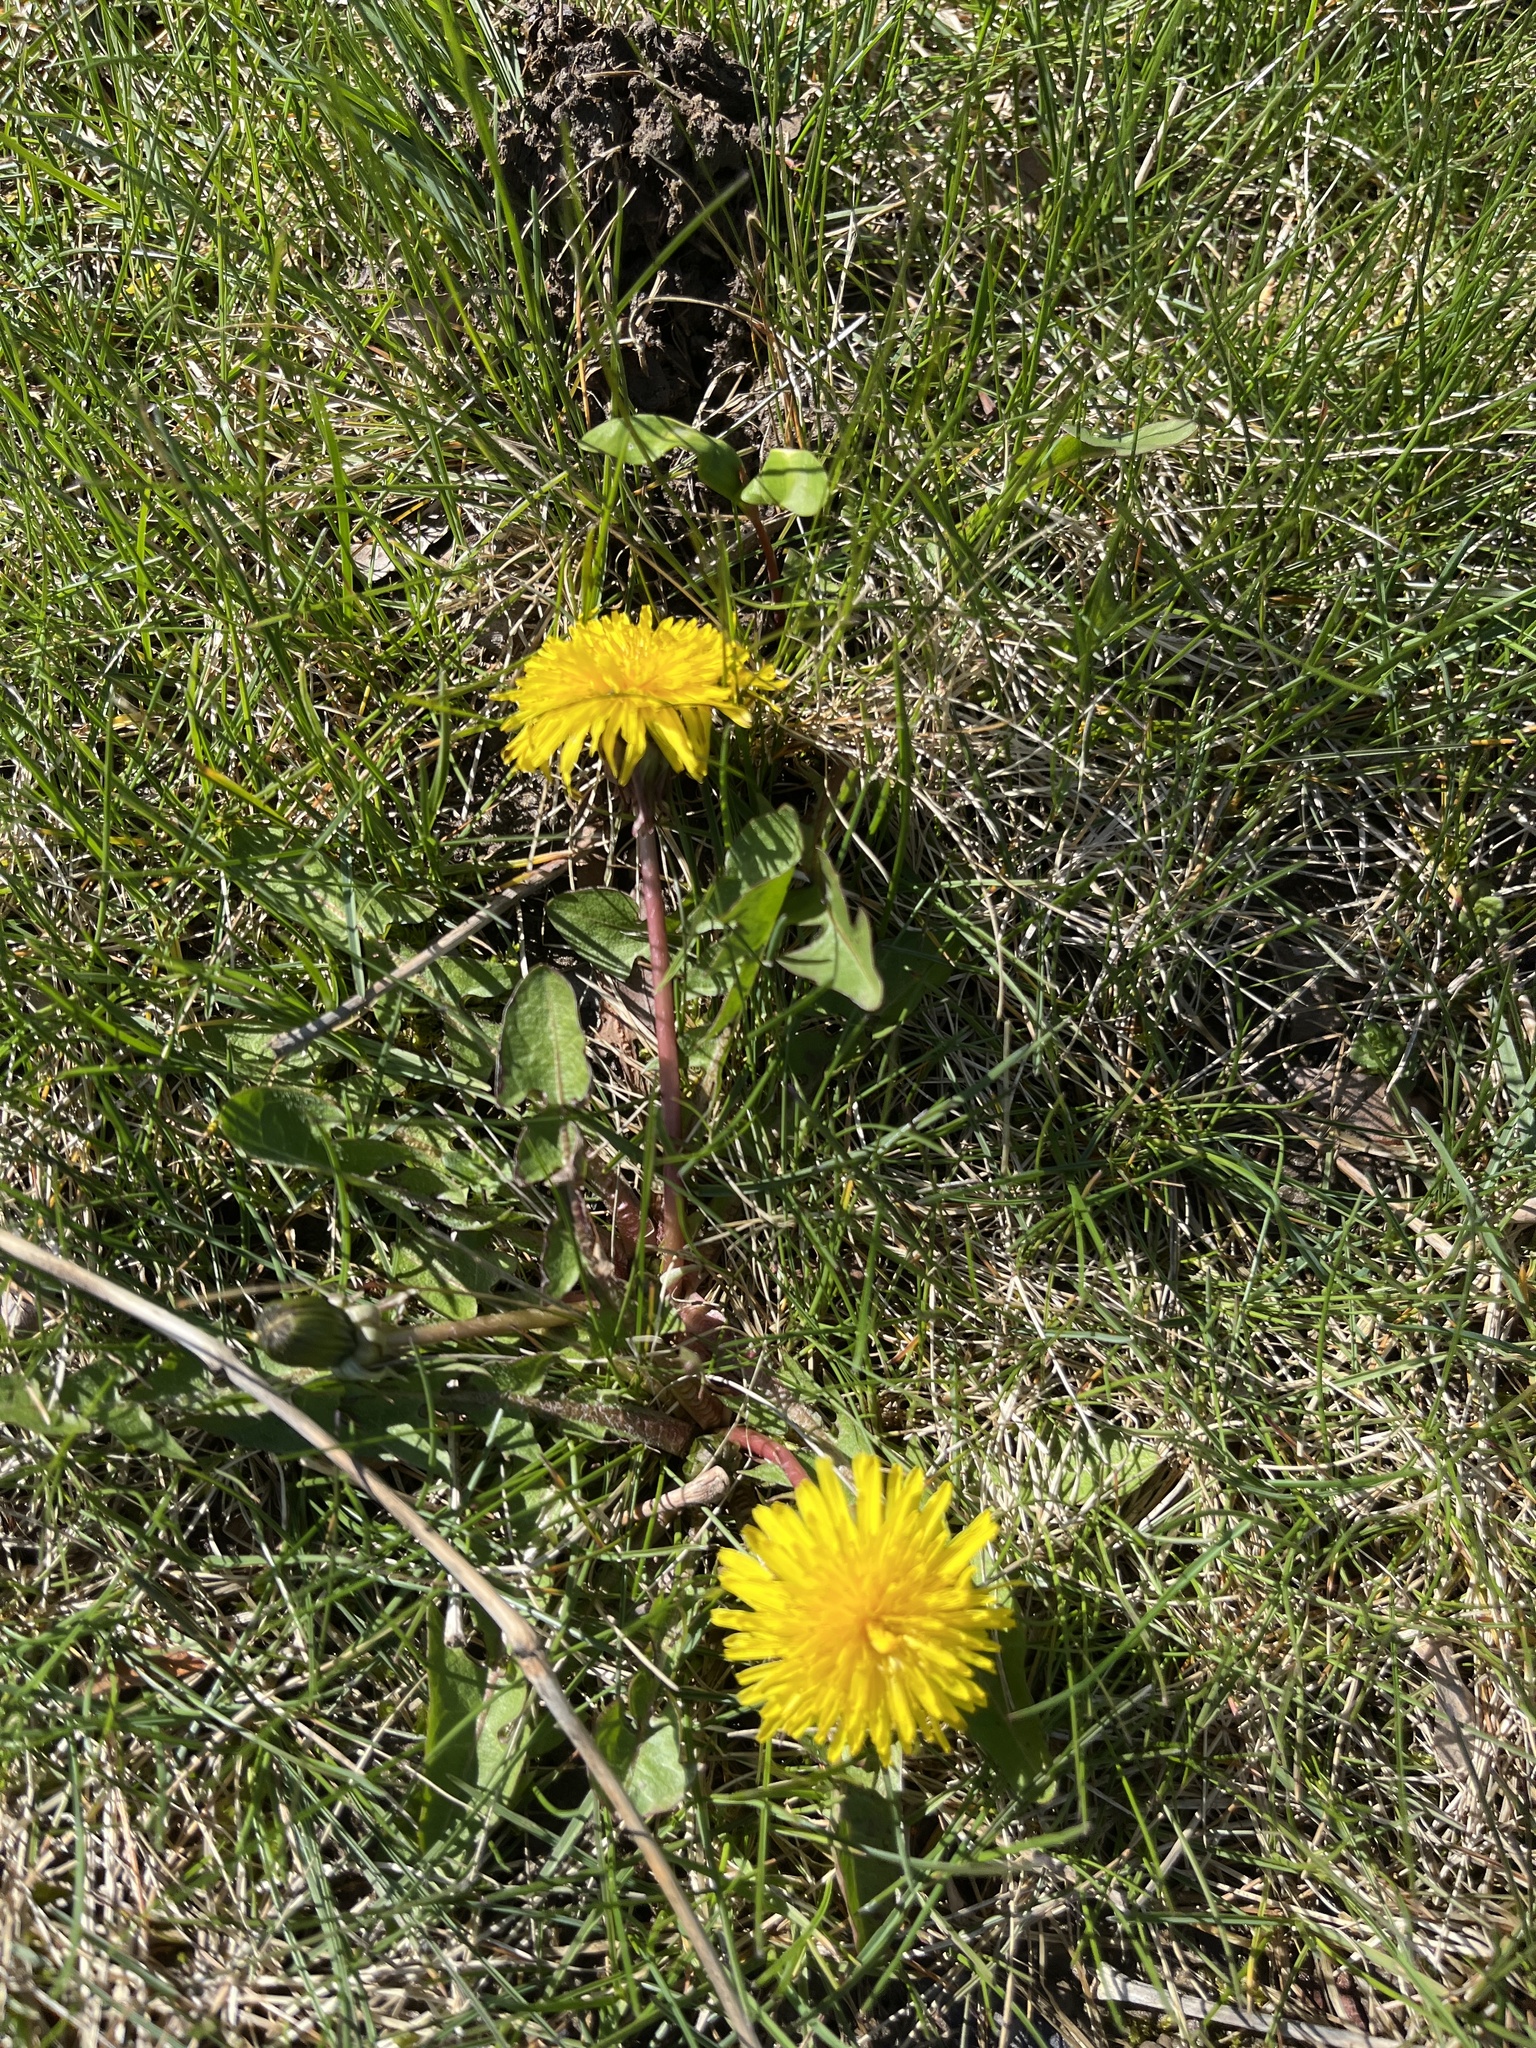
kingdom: Plantae
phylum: Tracheophyta
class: Magnoliopsida
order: Asterales
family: Asteraceae
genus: Taraxacum
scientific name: Taraxacum officinale
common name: Common dandelion
